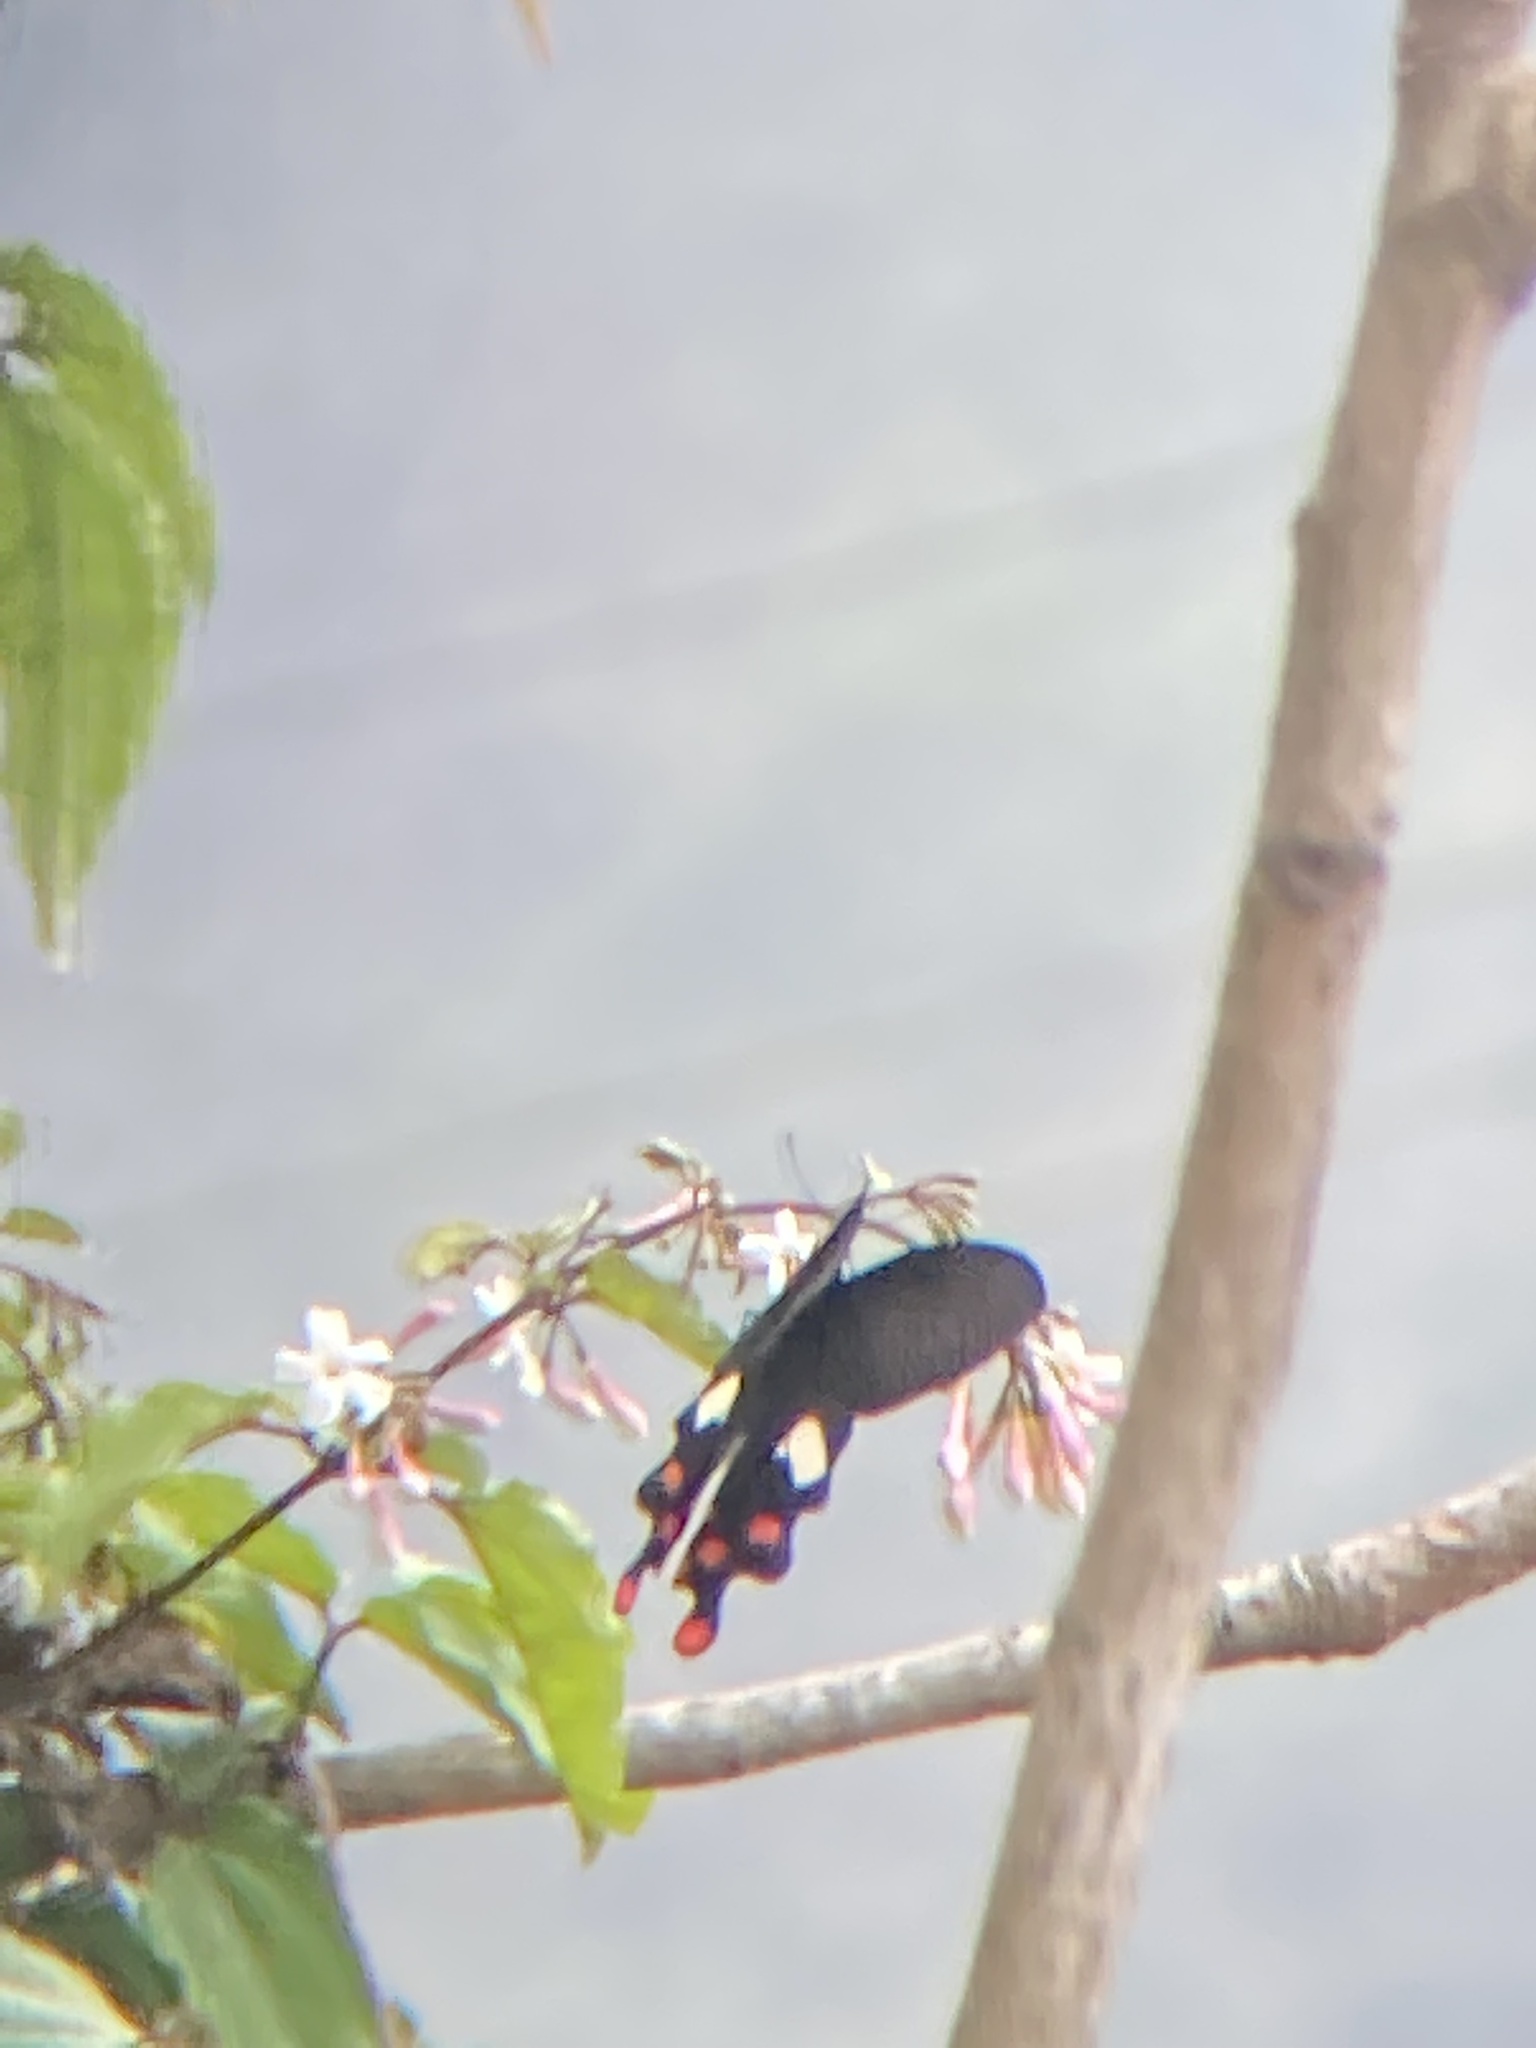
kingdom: Animalia
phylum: Arthropoda
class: Insecta
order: Lepidoptera
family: Papilionidae
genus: Byasa
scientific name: Byasa polyeuctes
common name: Common windmill
